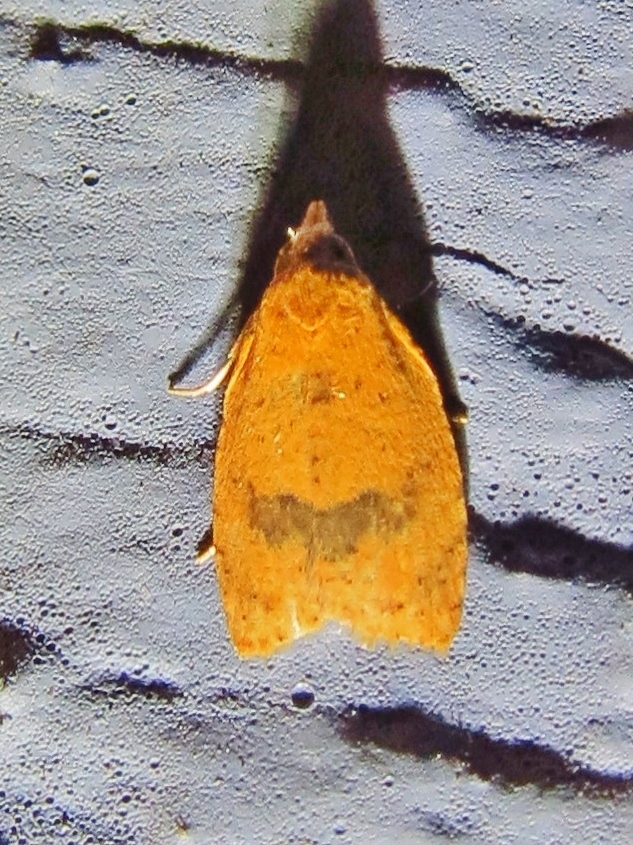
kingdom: Animalia
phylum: Arthropoda
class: Insecta
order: Lepidoptera
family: Tortricidae
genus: Sparganothoides
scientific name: Sparganothoides lentiginosana
